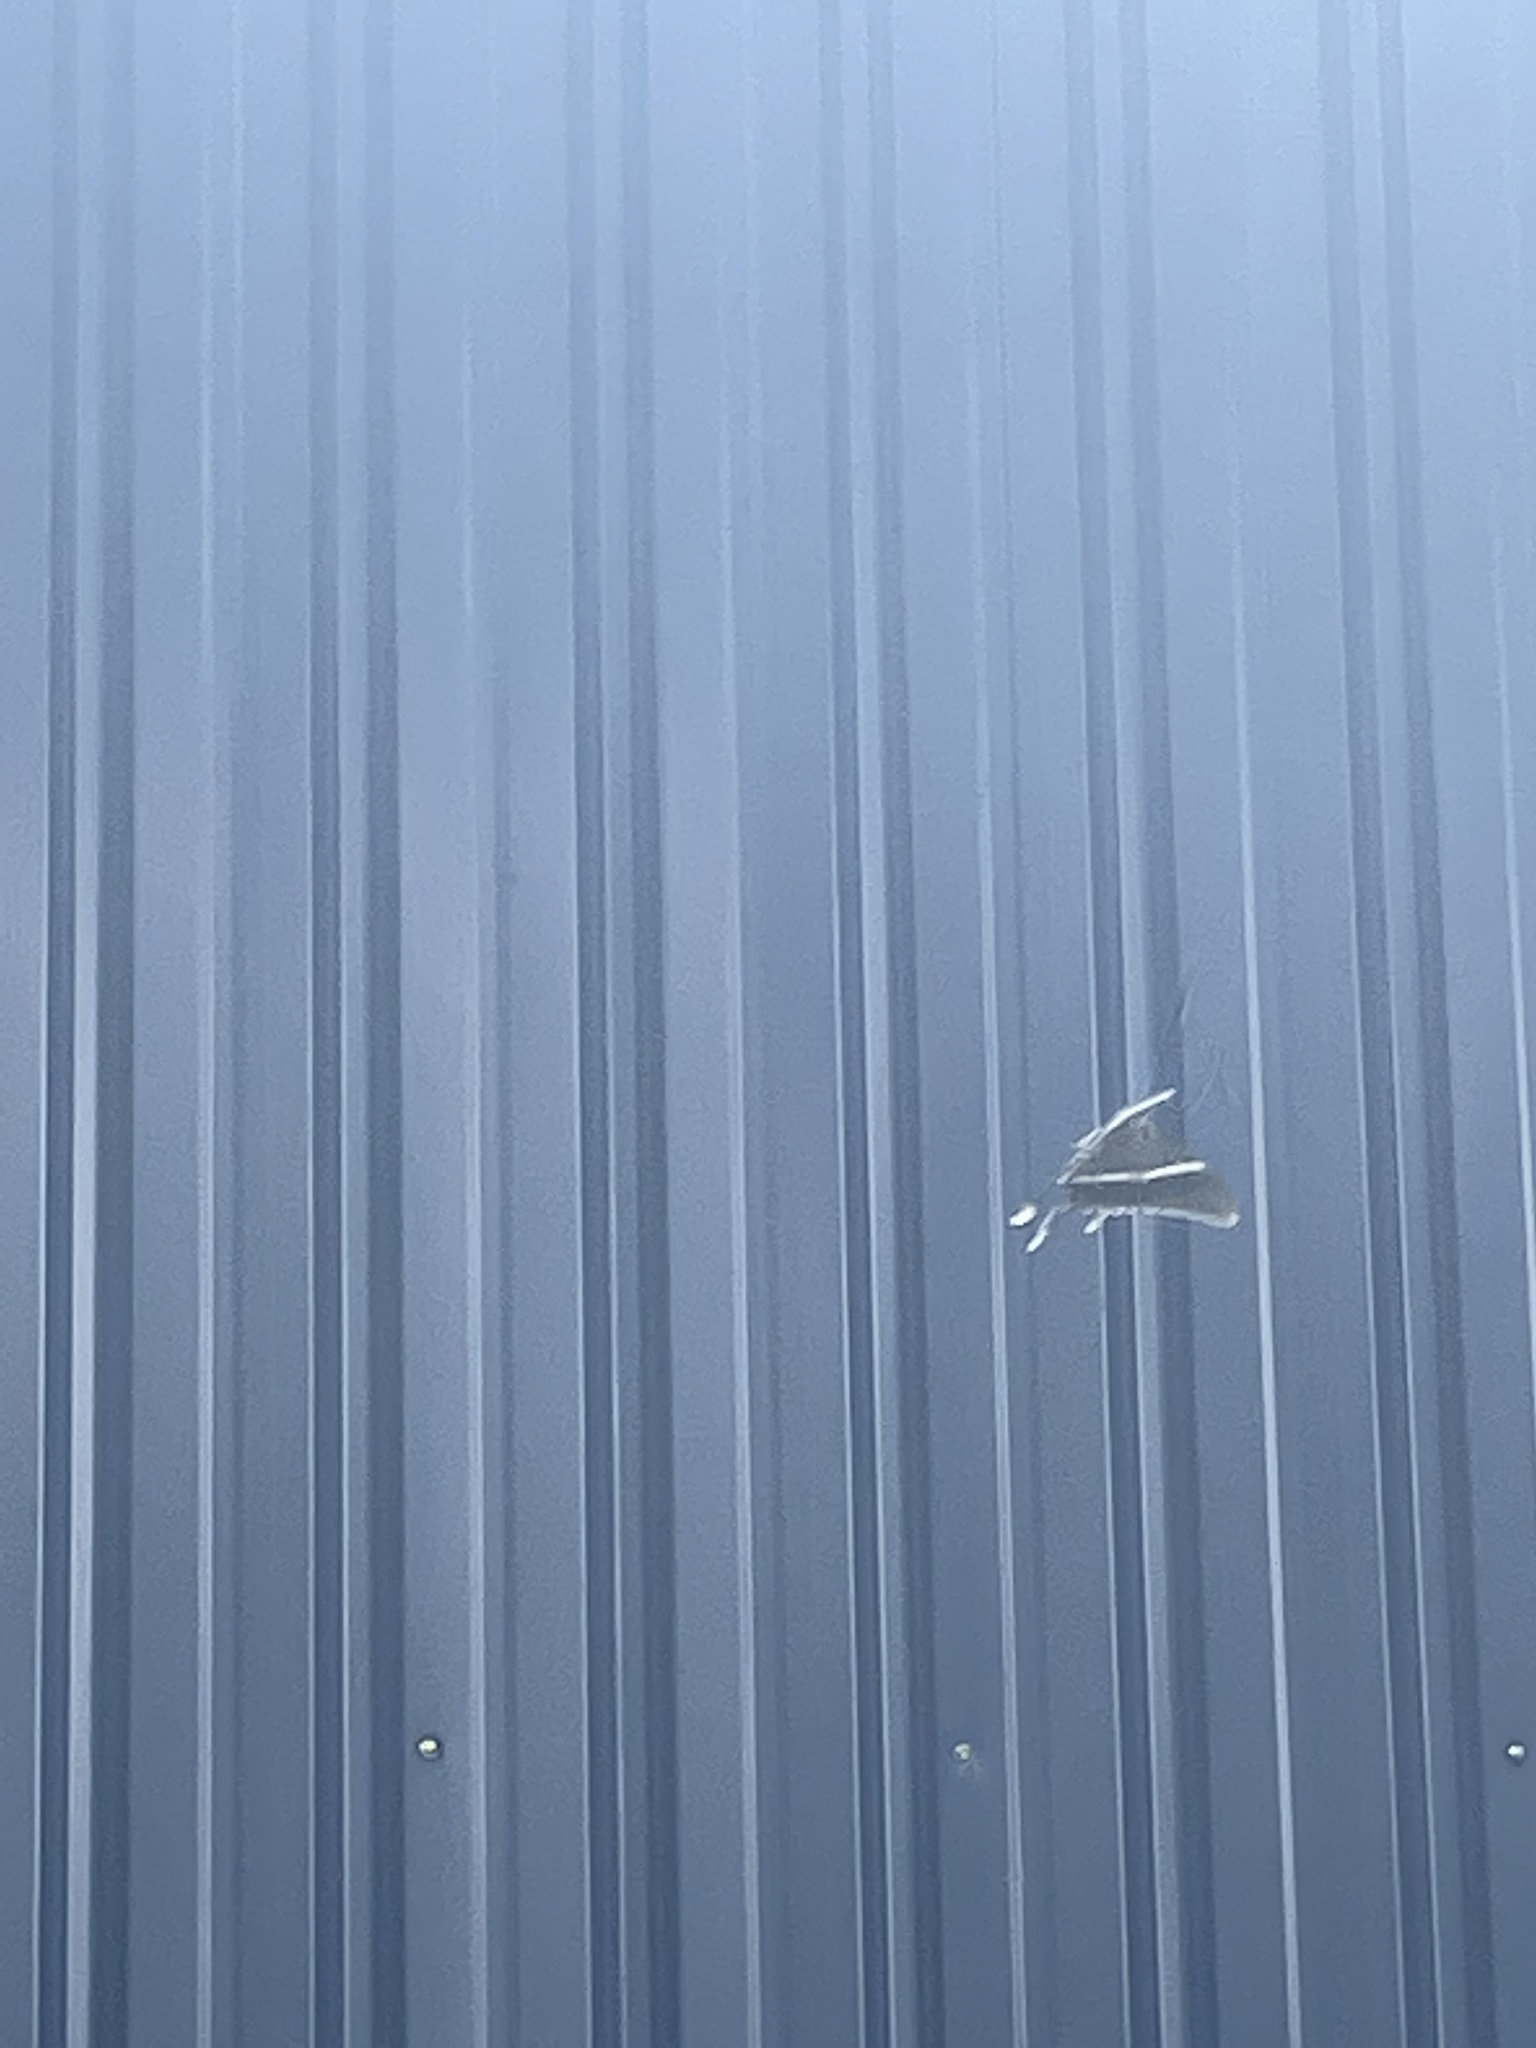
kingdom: Animalia
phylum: Arthropoda
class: Insecta
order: Lepidoptera
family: Uraniidae
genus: Lyssa
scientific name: Lyssa zampa
